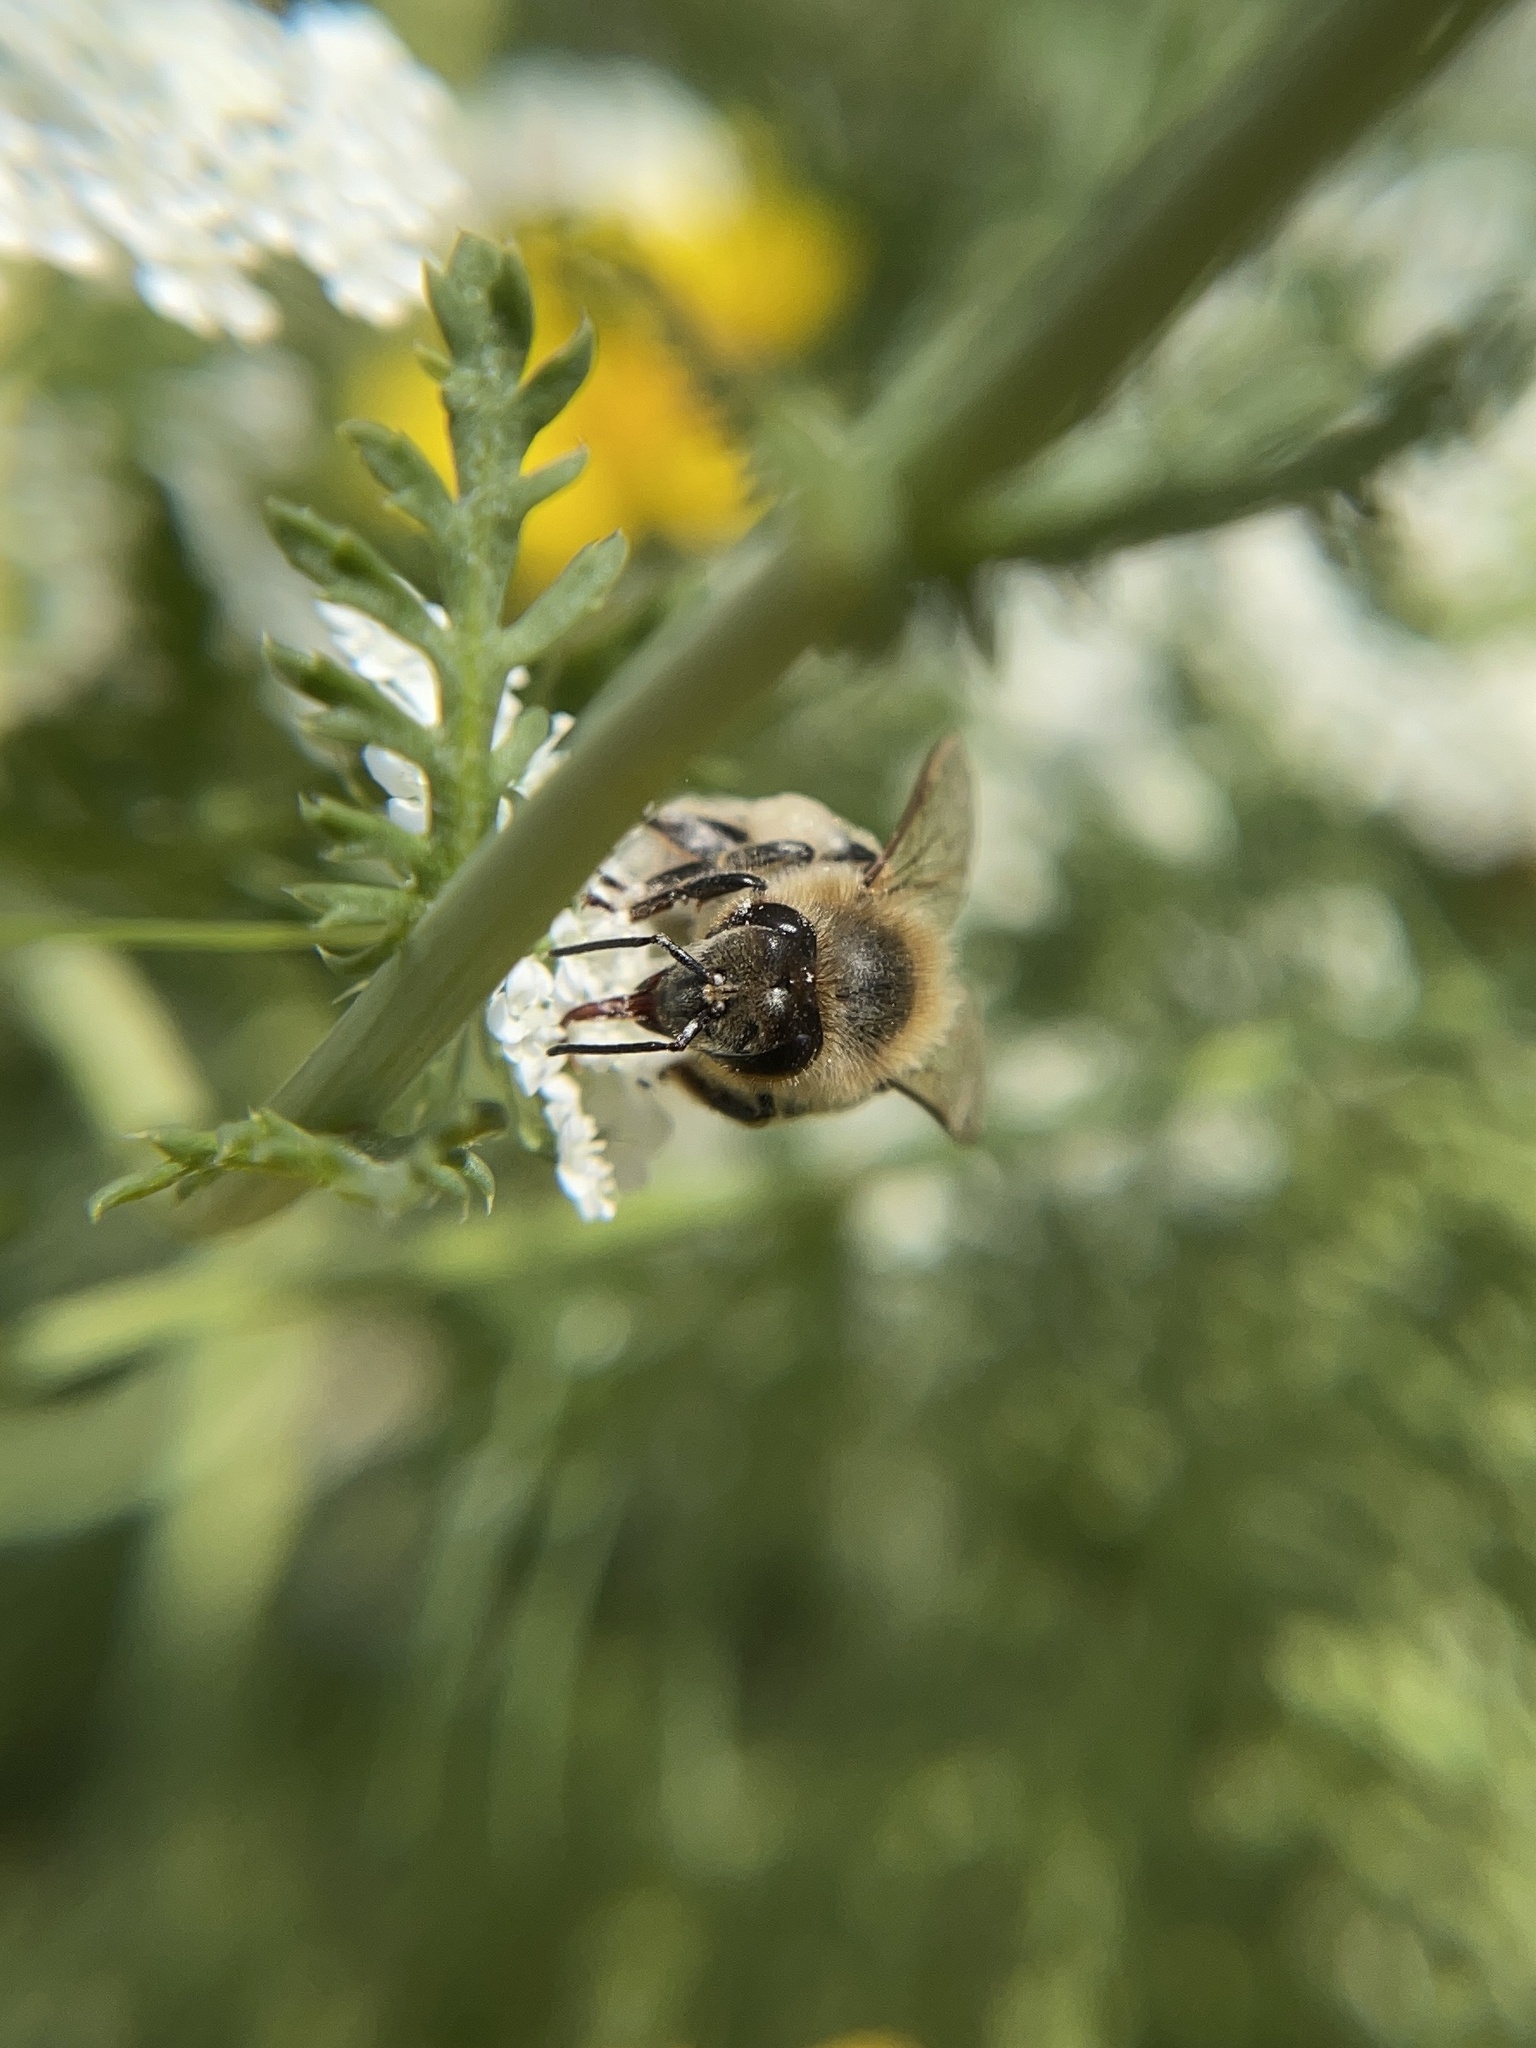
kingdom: Animalia
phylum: Arthropoda
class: Insecta
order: Hymenoptera
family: Apidae
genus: Apis
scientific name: Apis mellifera
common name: Honey bee
